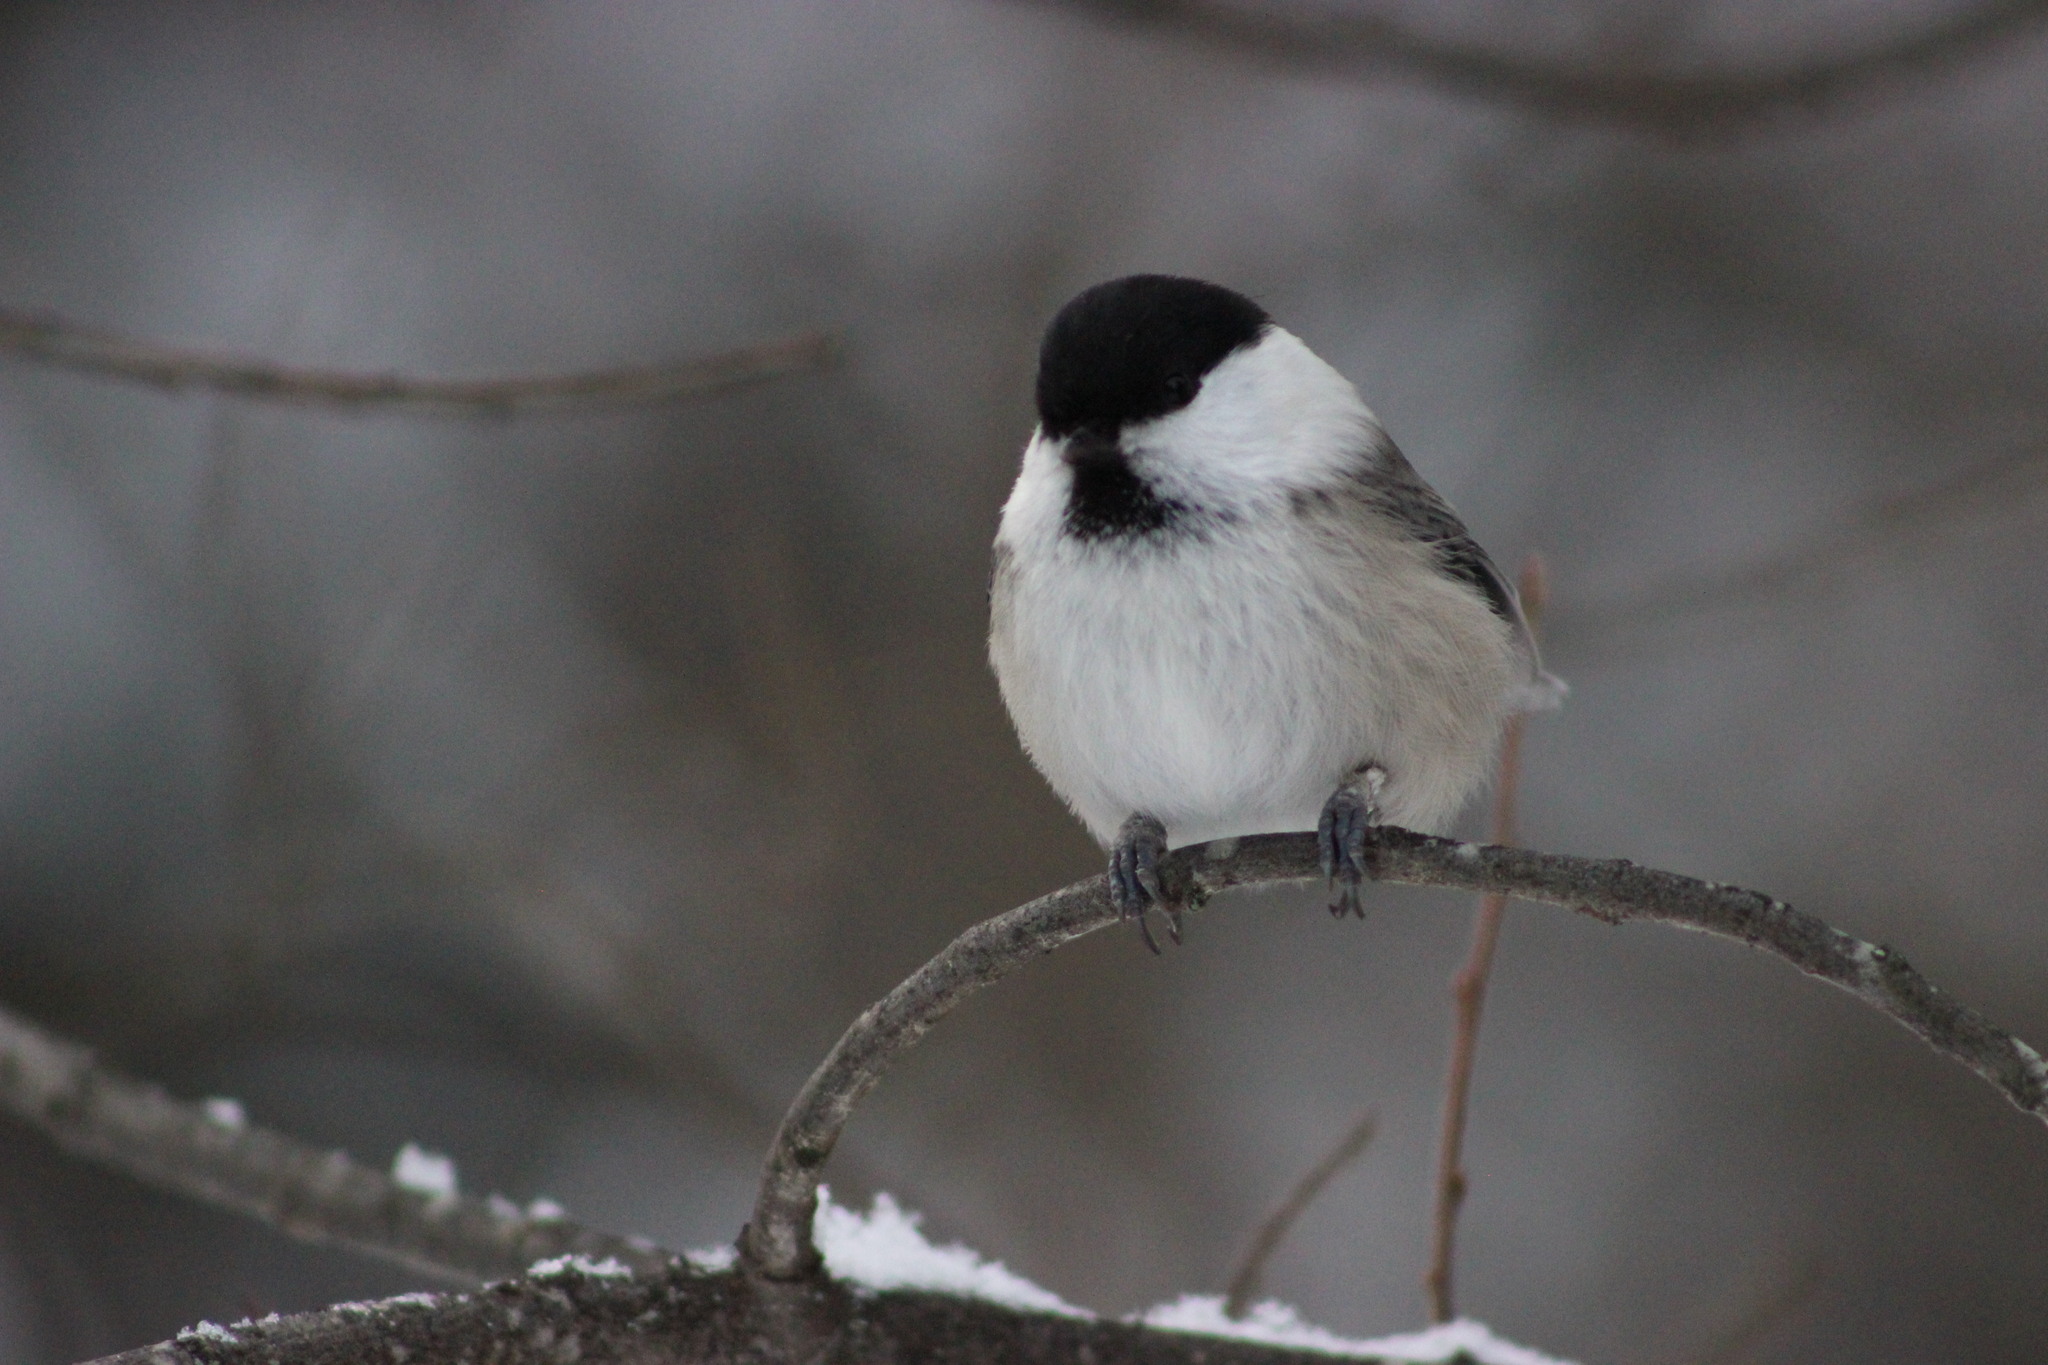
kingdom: Animalia
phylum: Chordata
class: Aves
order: Passeriformes
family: Paridae
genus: Poecile
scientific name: Poecile montanus
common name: Willow tit
